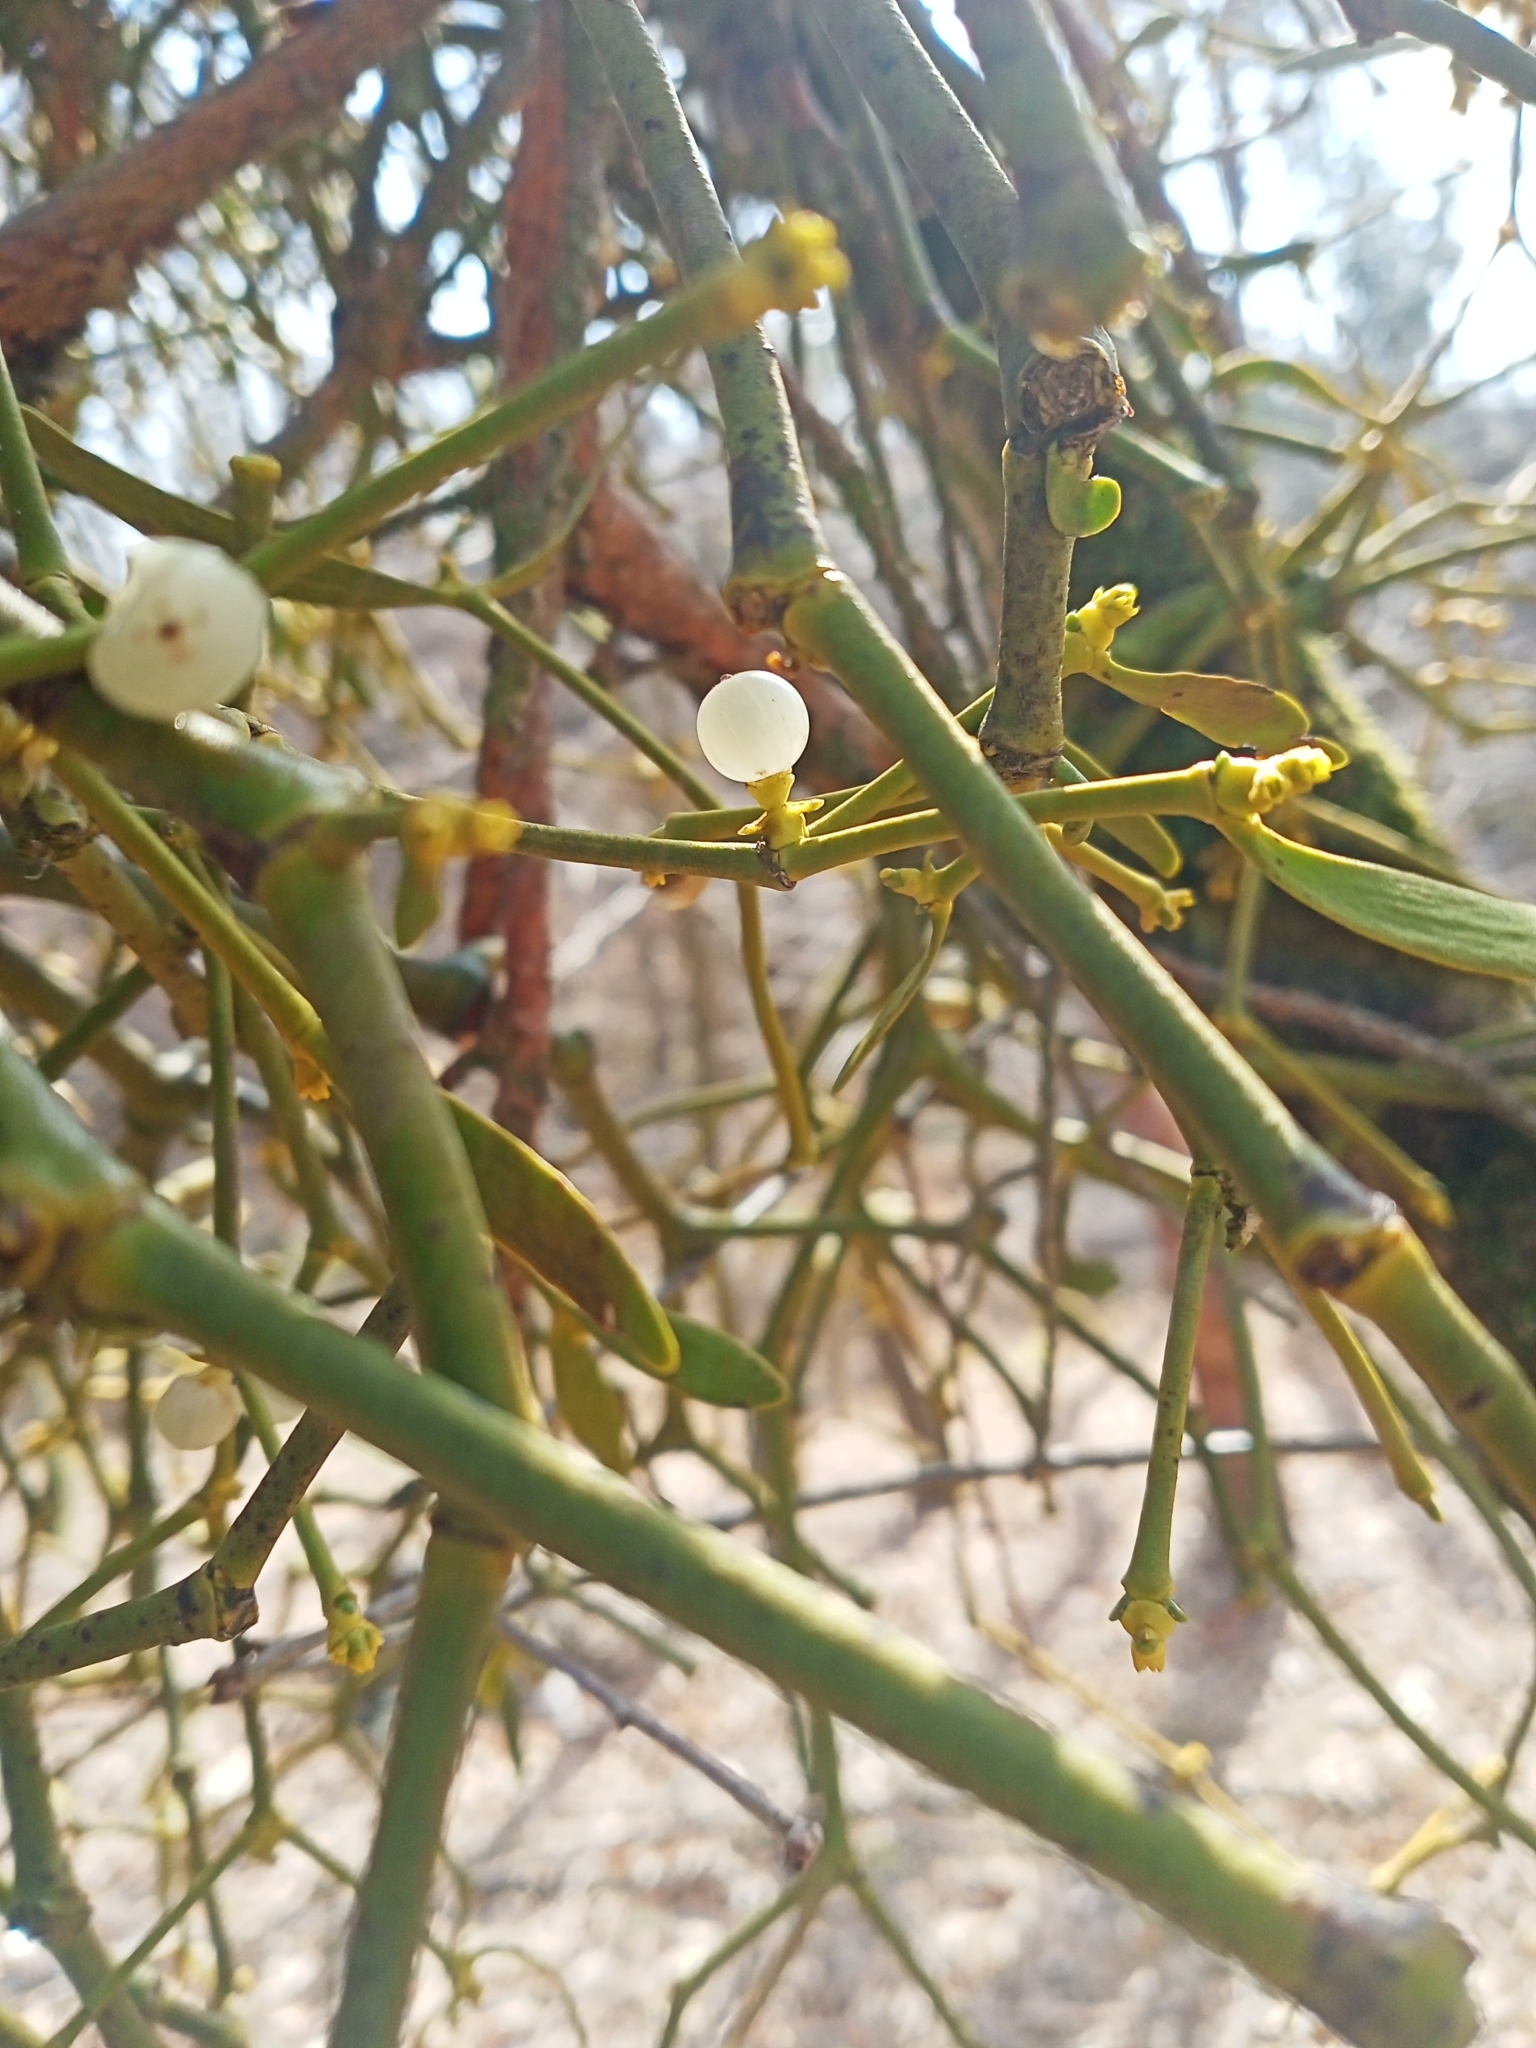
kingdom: Plantae
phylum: Tracheophyta
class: Magnoliopsida
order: Santalales
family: Viscaceae
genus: Viscum
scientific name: Viscum laxum
